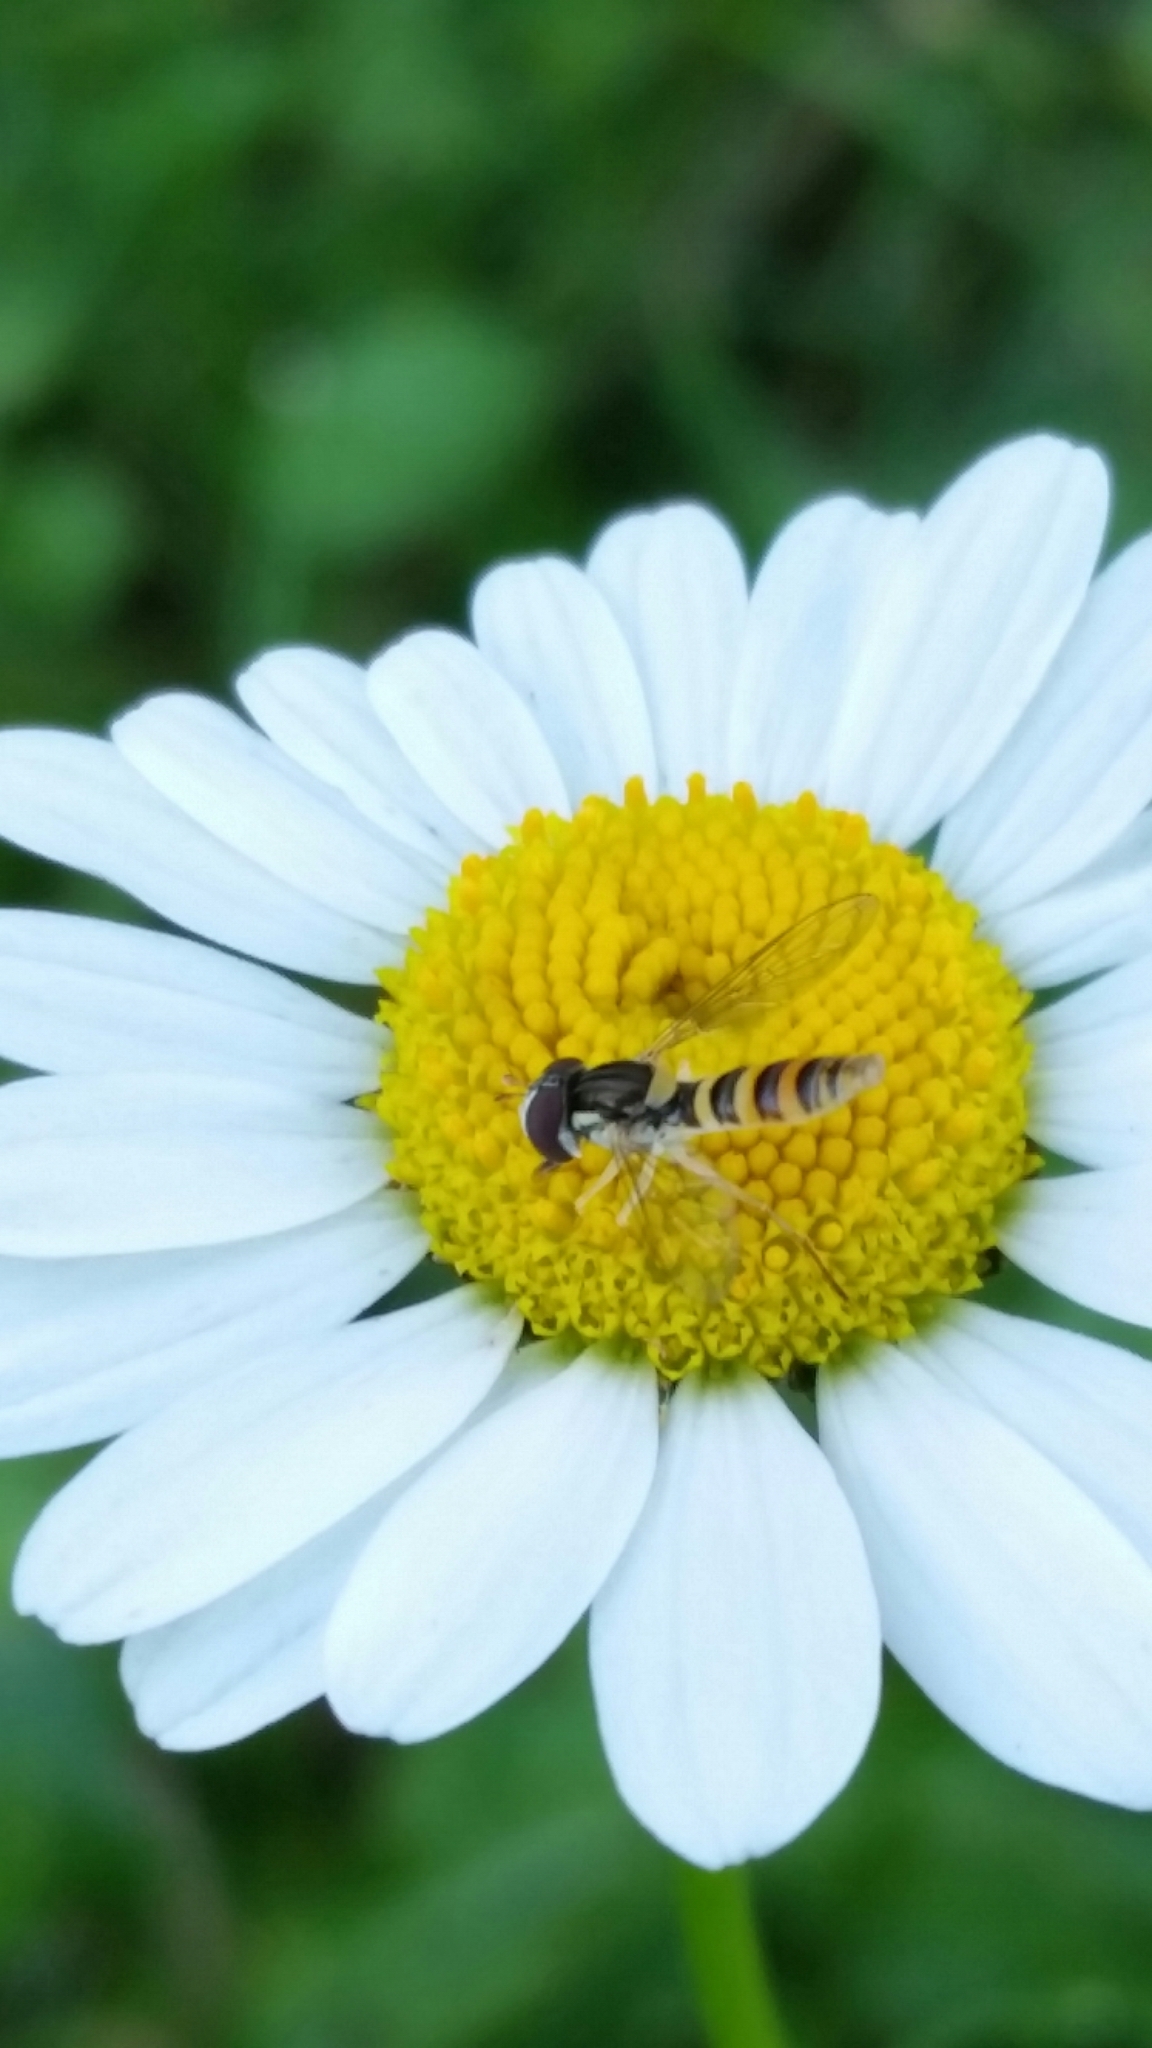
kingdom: Animalia
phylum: Arthropoda
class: Insecta
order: Diptera
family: Syrphidae
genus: Sphaerophoria
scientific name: Sphaerophoria contigua
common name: Tufted globetail
